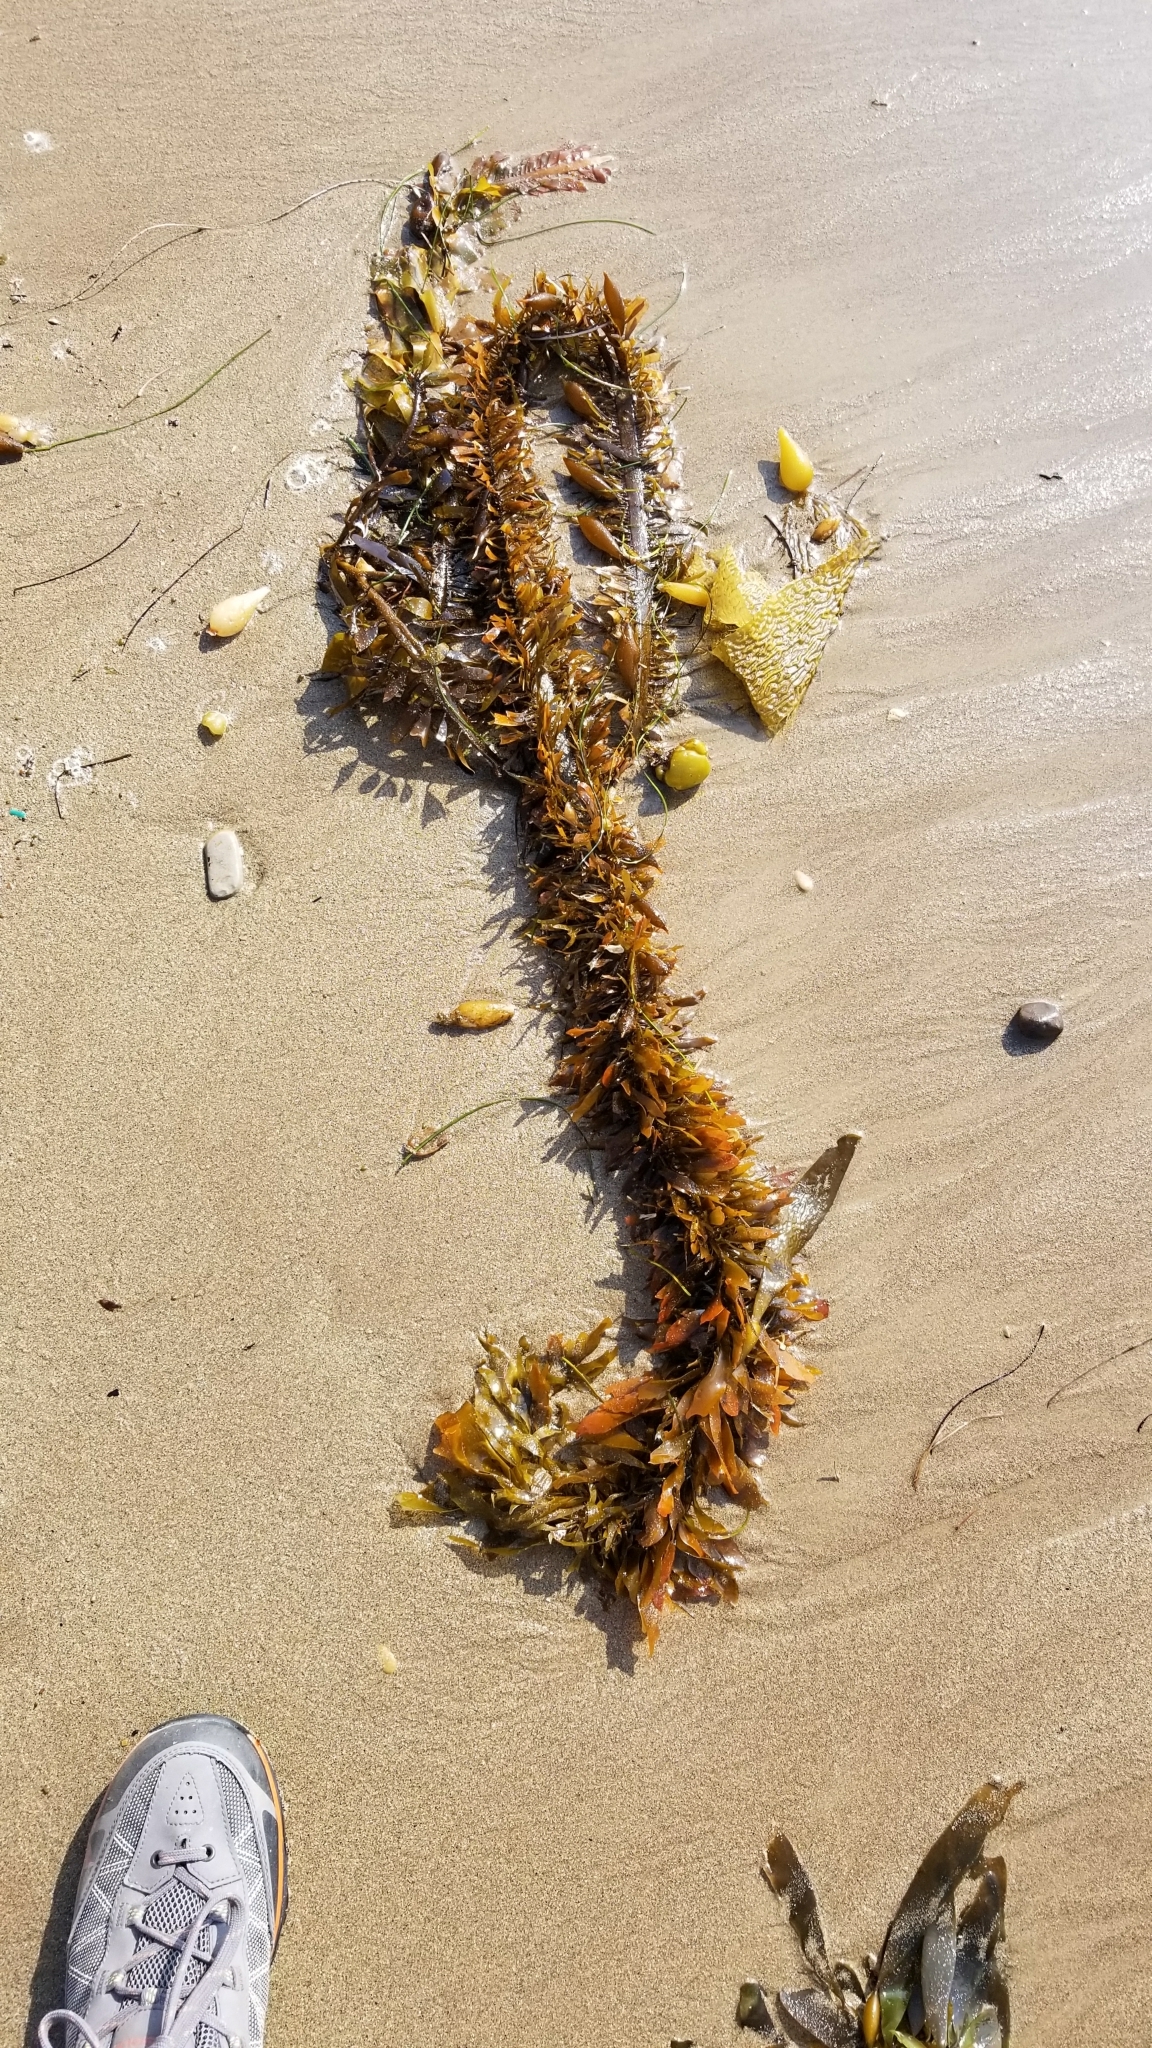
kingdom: Chromista
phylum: Ochrophyta
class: Phaeophyceae
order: Laminariales
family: Lessoniaceae
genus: Egregia
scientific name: Egregia menziesii
